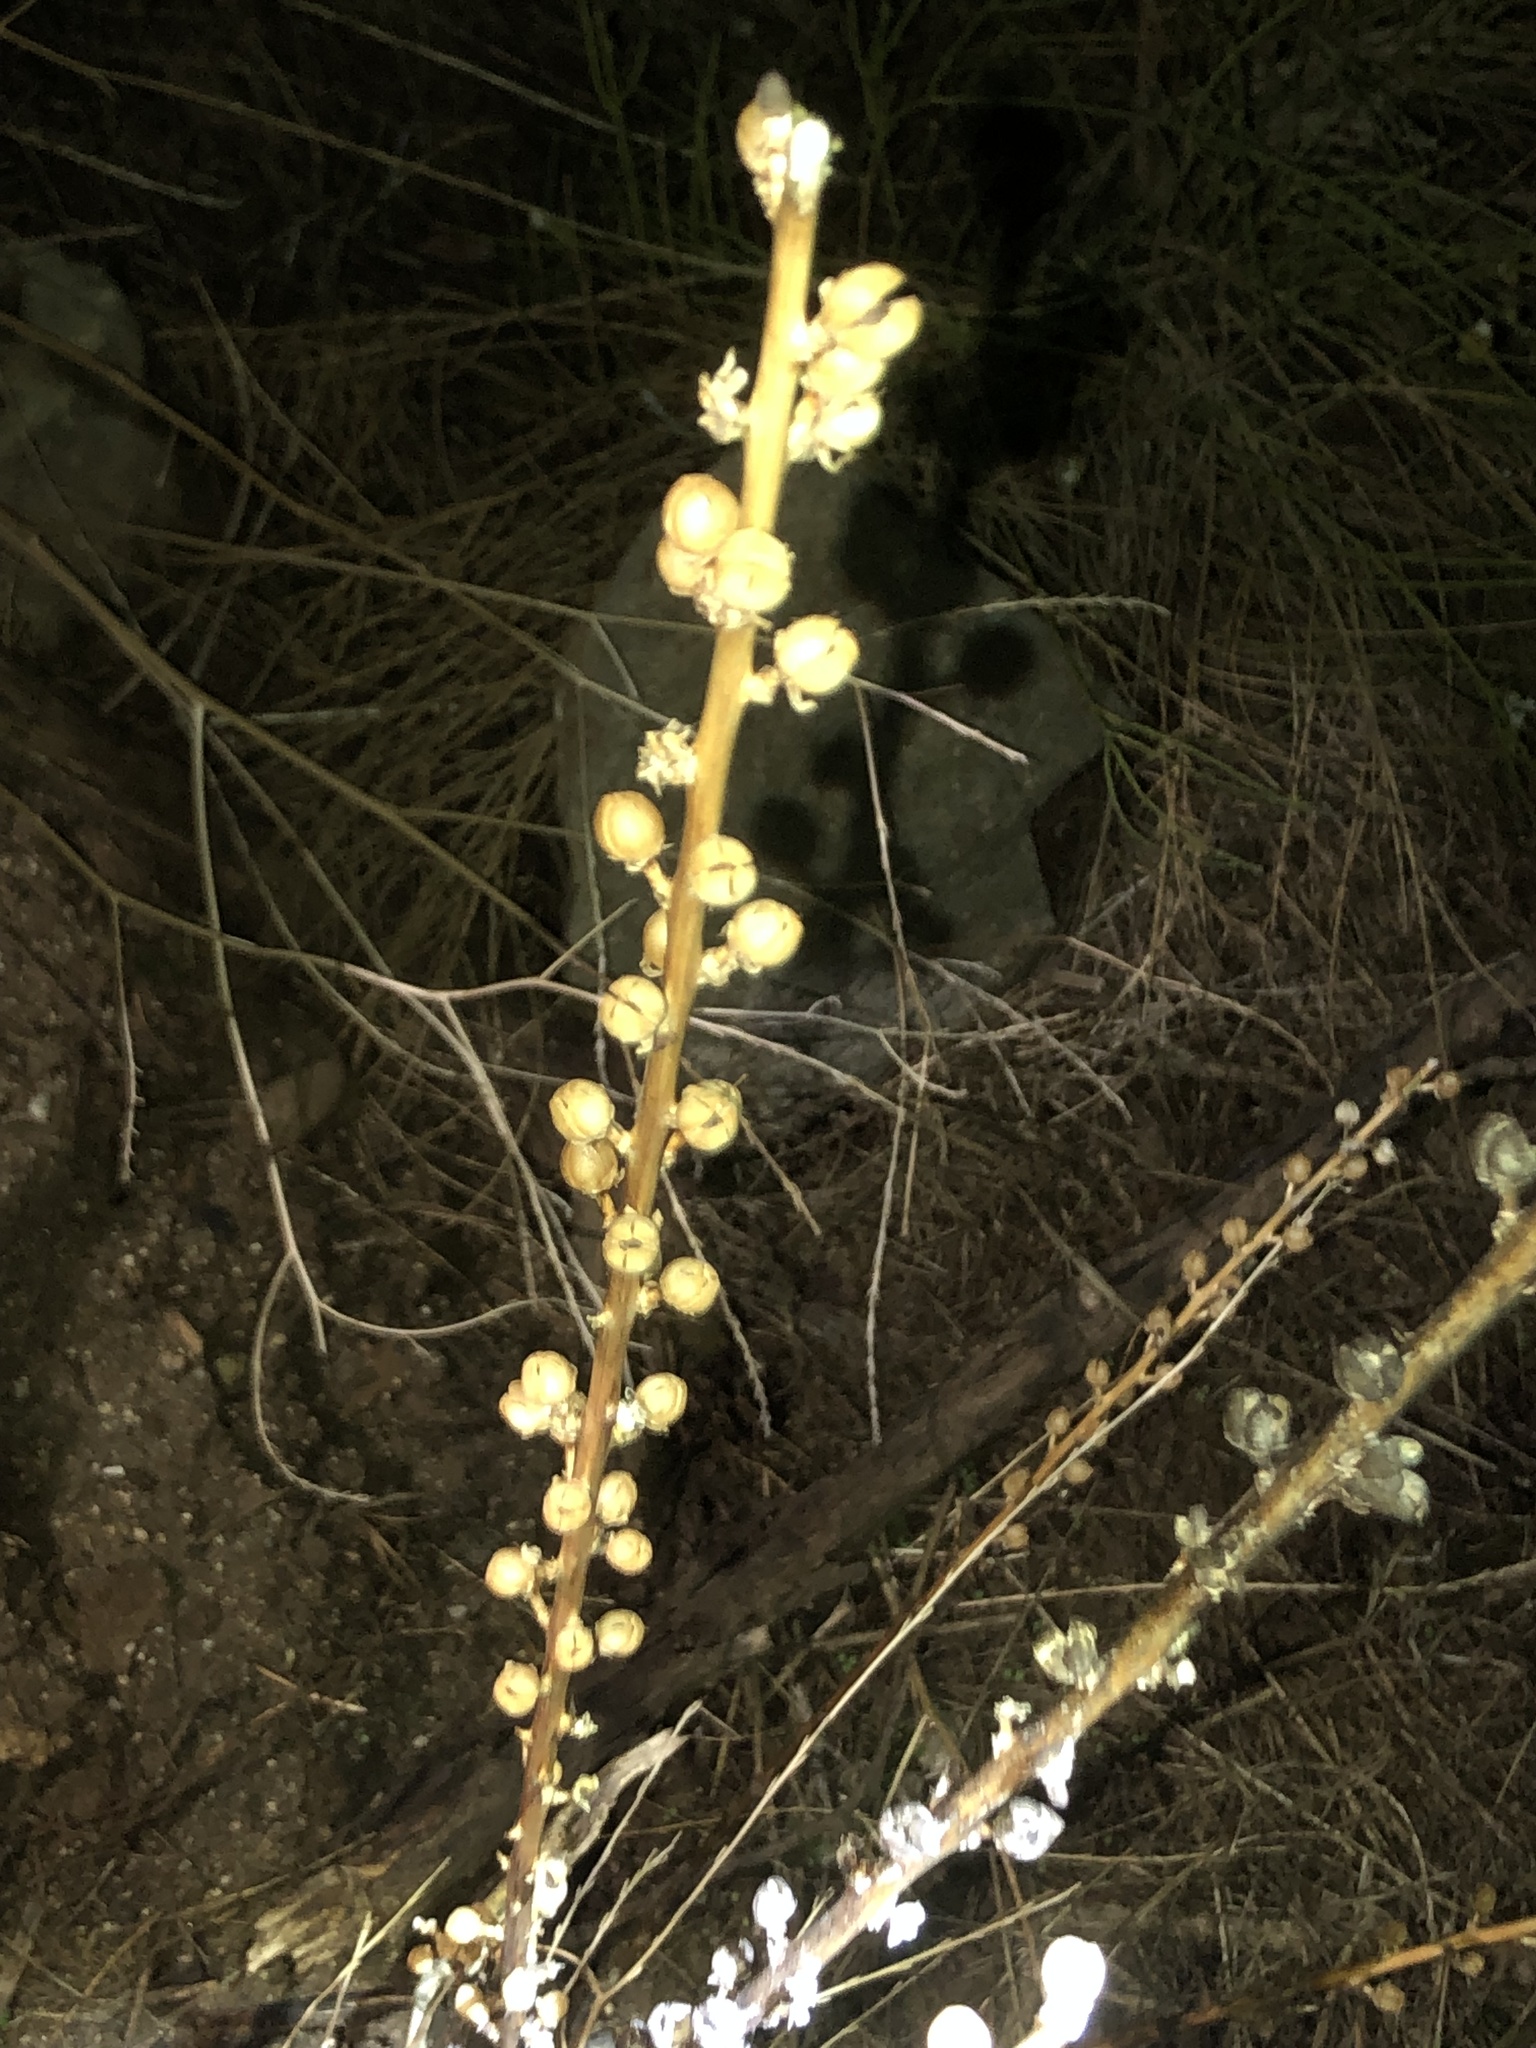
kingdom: Plantae
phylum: Tracheophyta
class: Magnoliopsida
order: Lamiales
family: Scrophulariaceae
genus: Verbascum
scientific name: Verbascum virgatum
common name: Twiggy mullein
